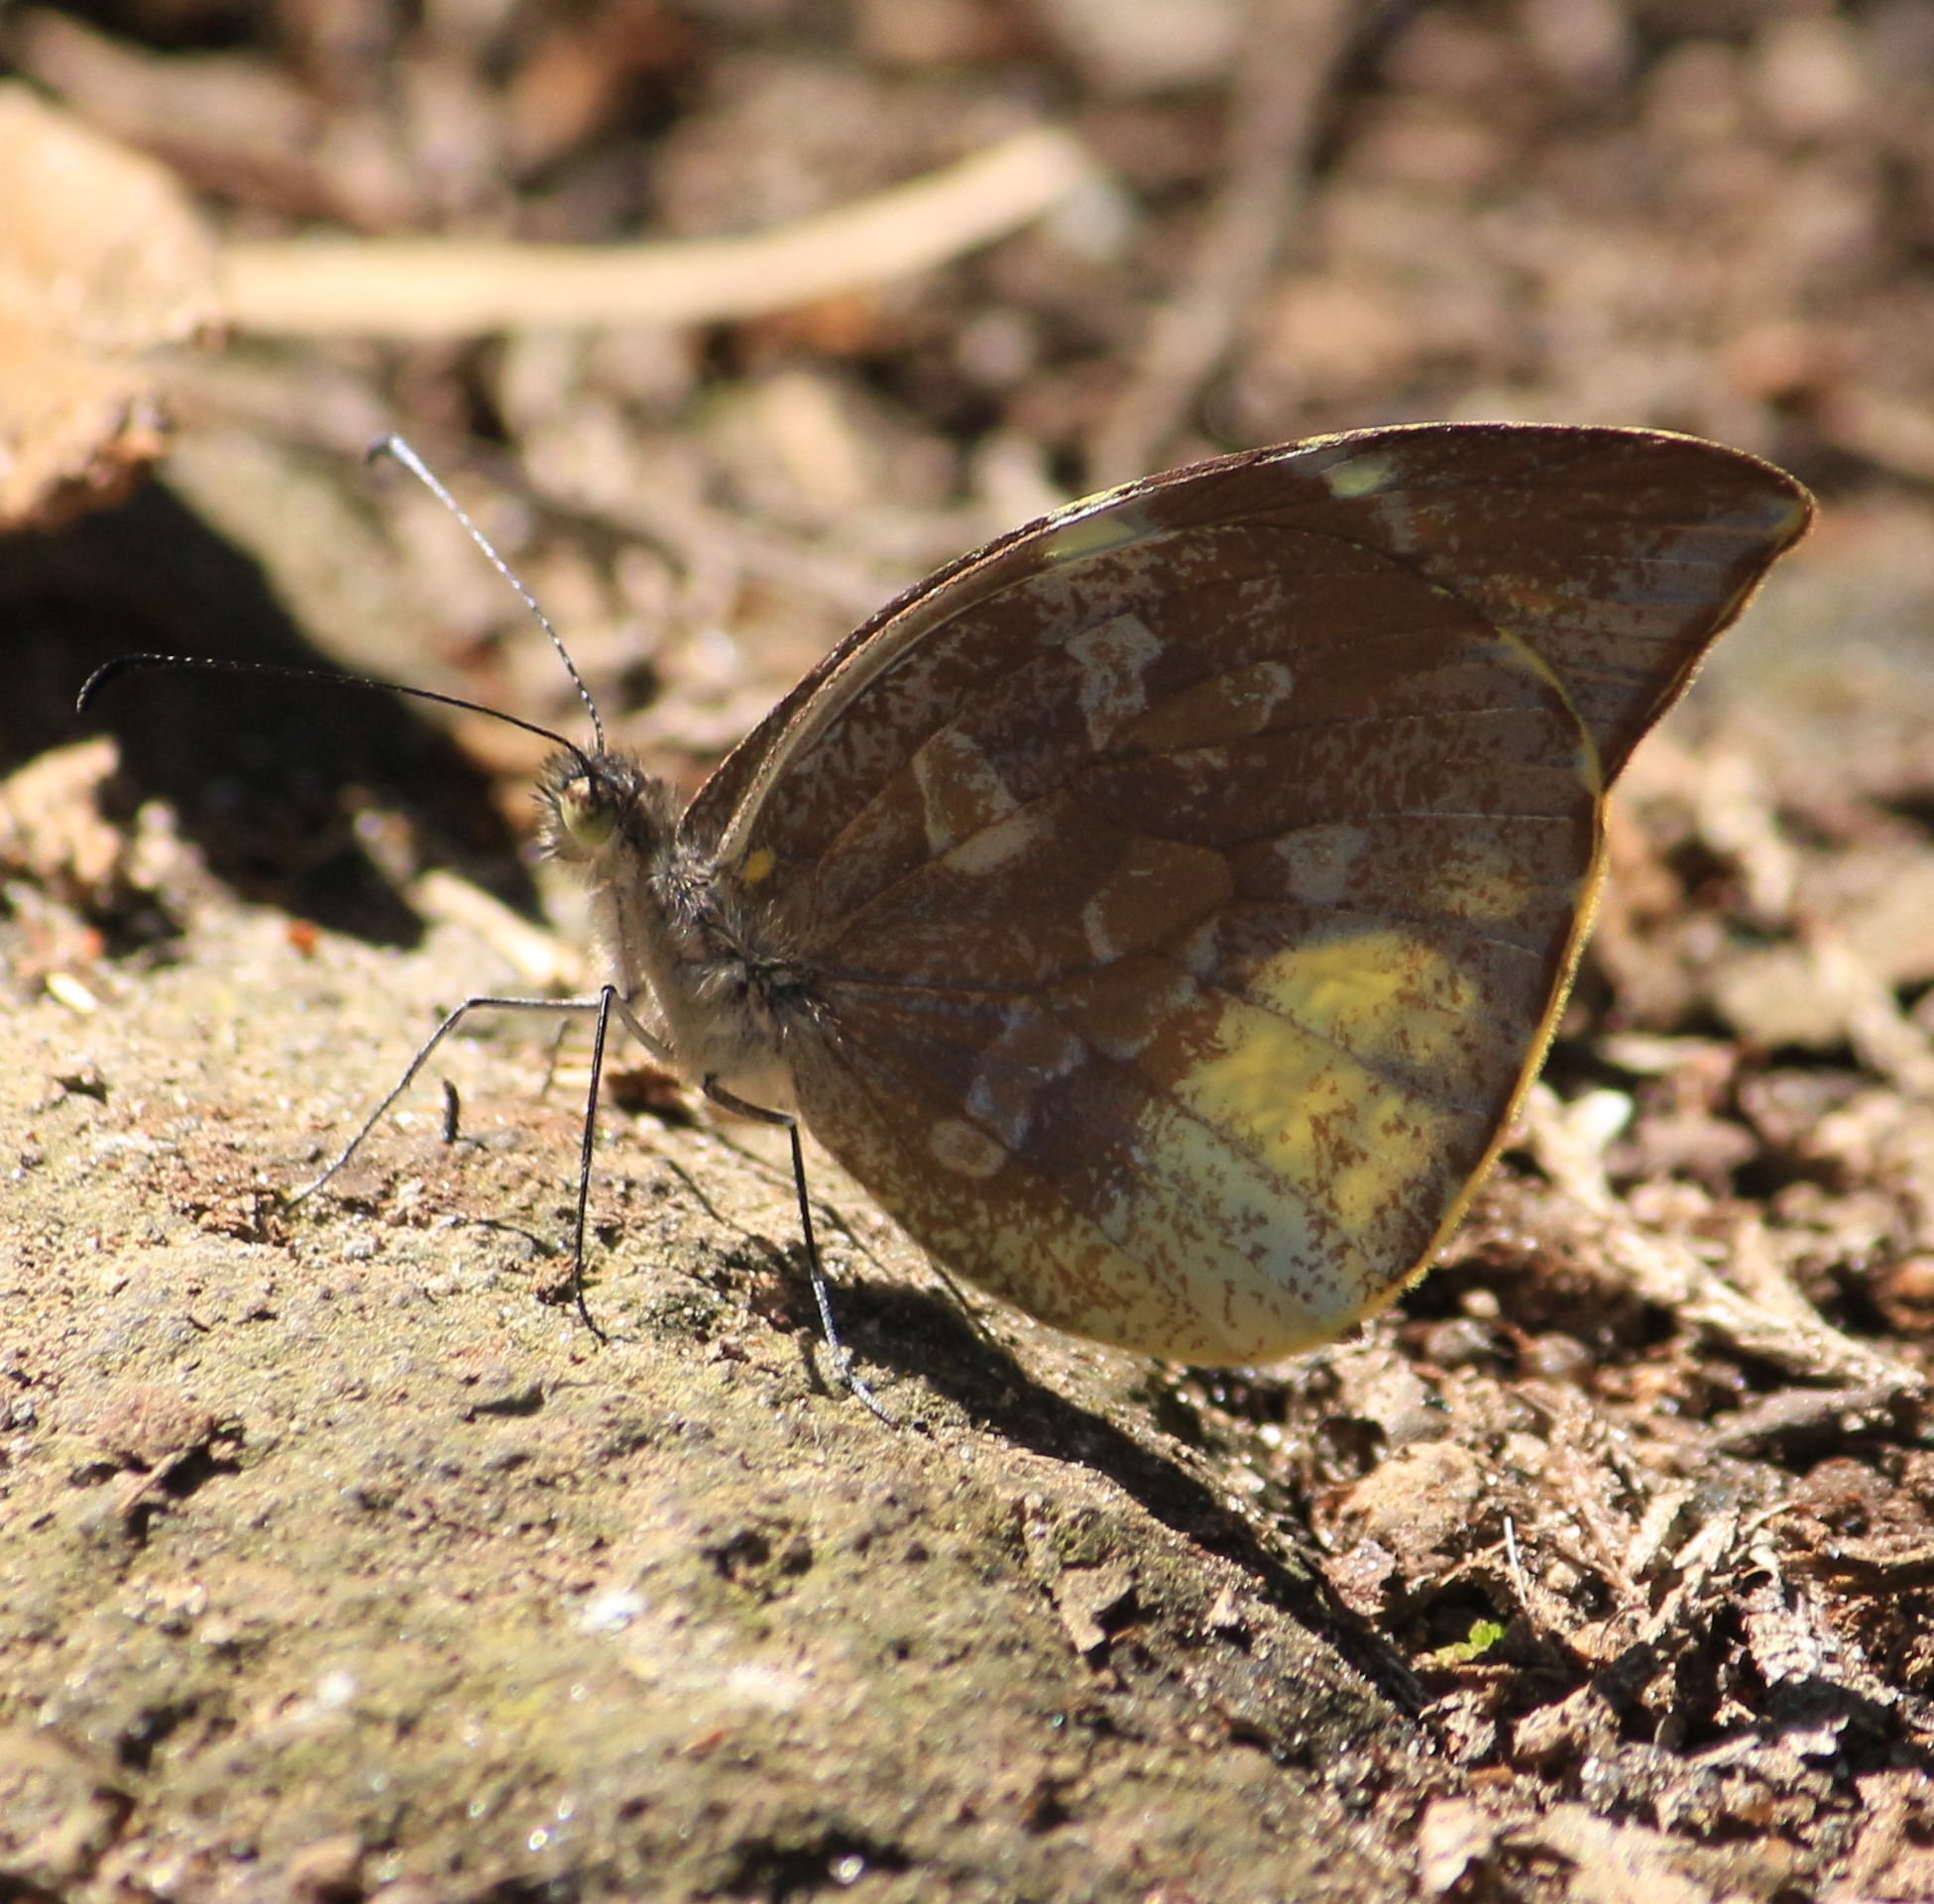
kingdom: Animalia
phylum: Arthropoda
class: Insecta
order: Lepidoptera
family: Pieridae
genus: Lieinix
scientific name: Lieinix nemesis
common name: Frosted mimic-white
